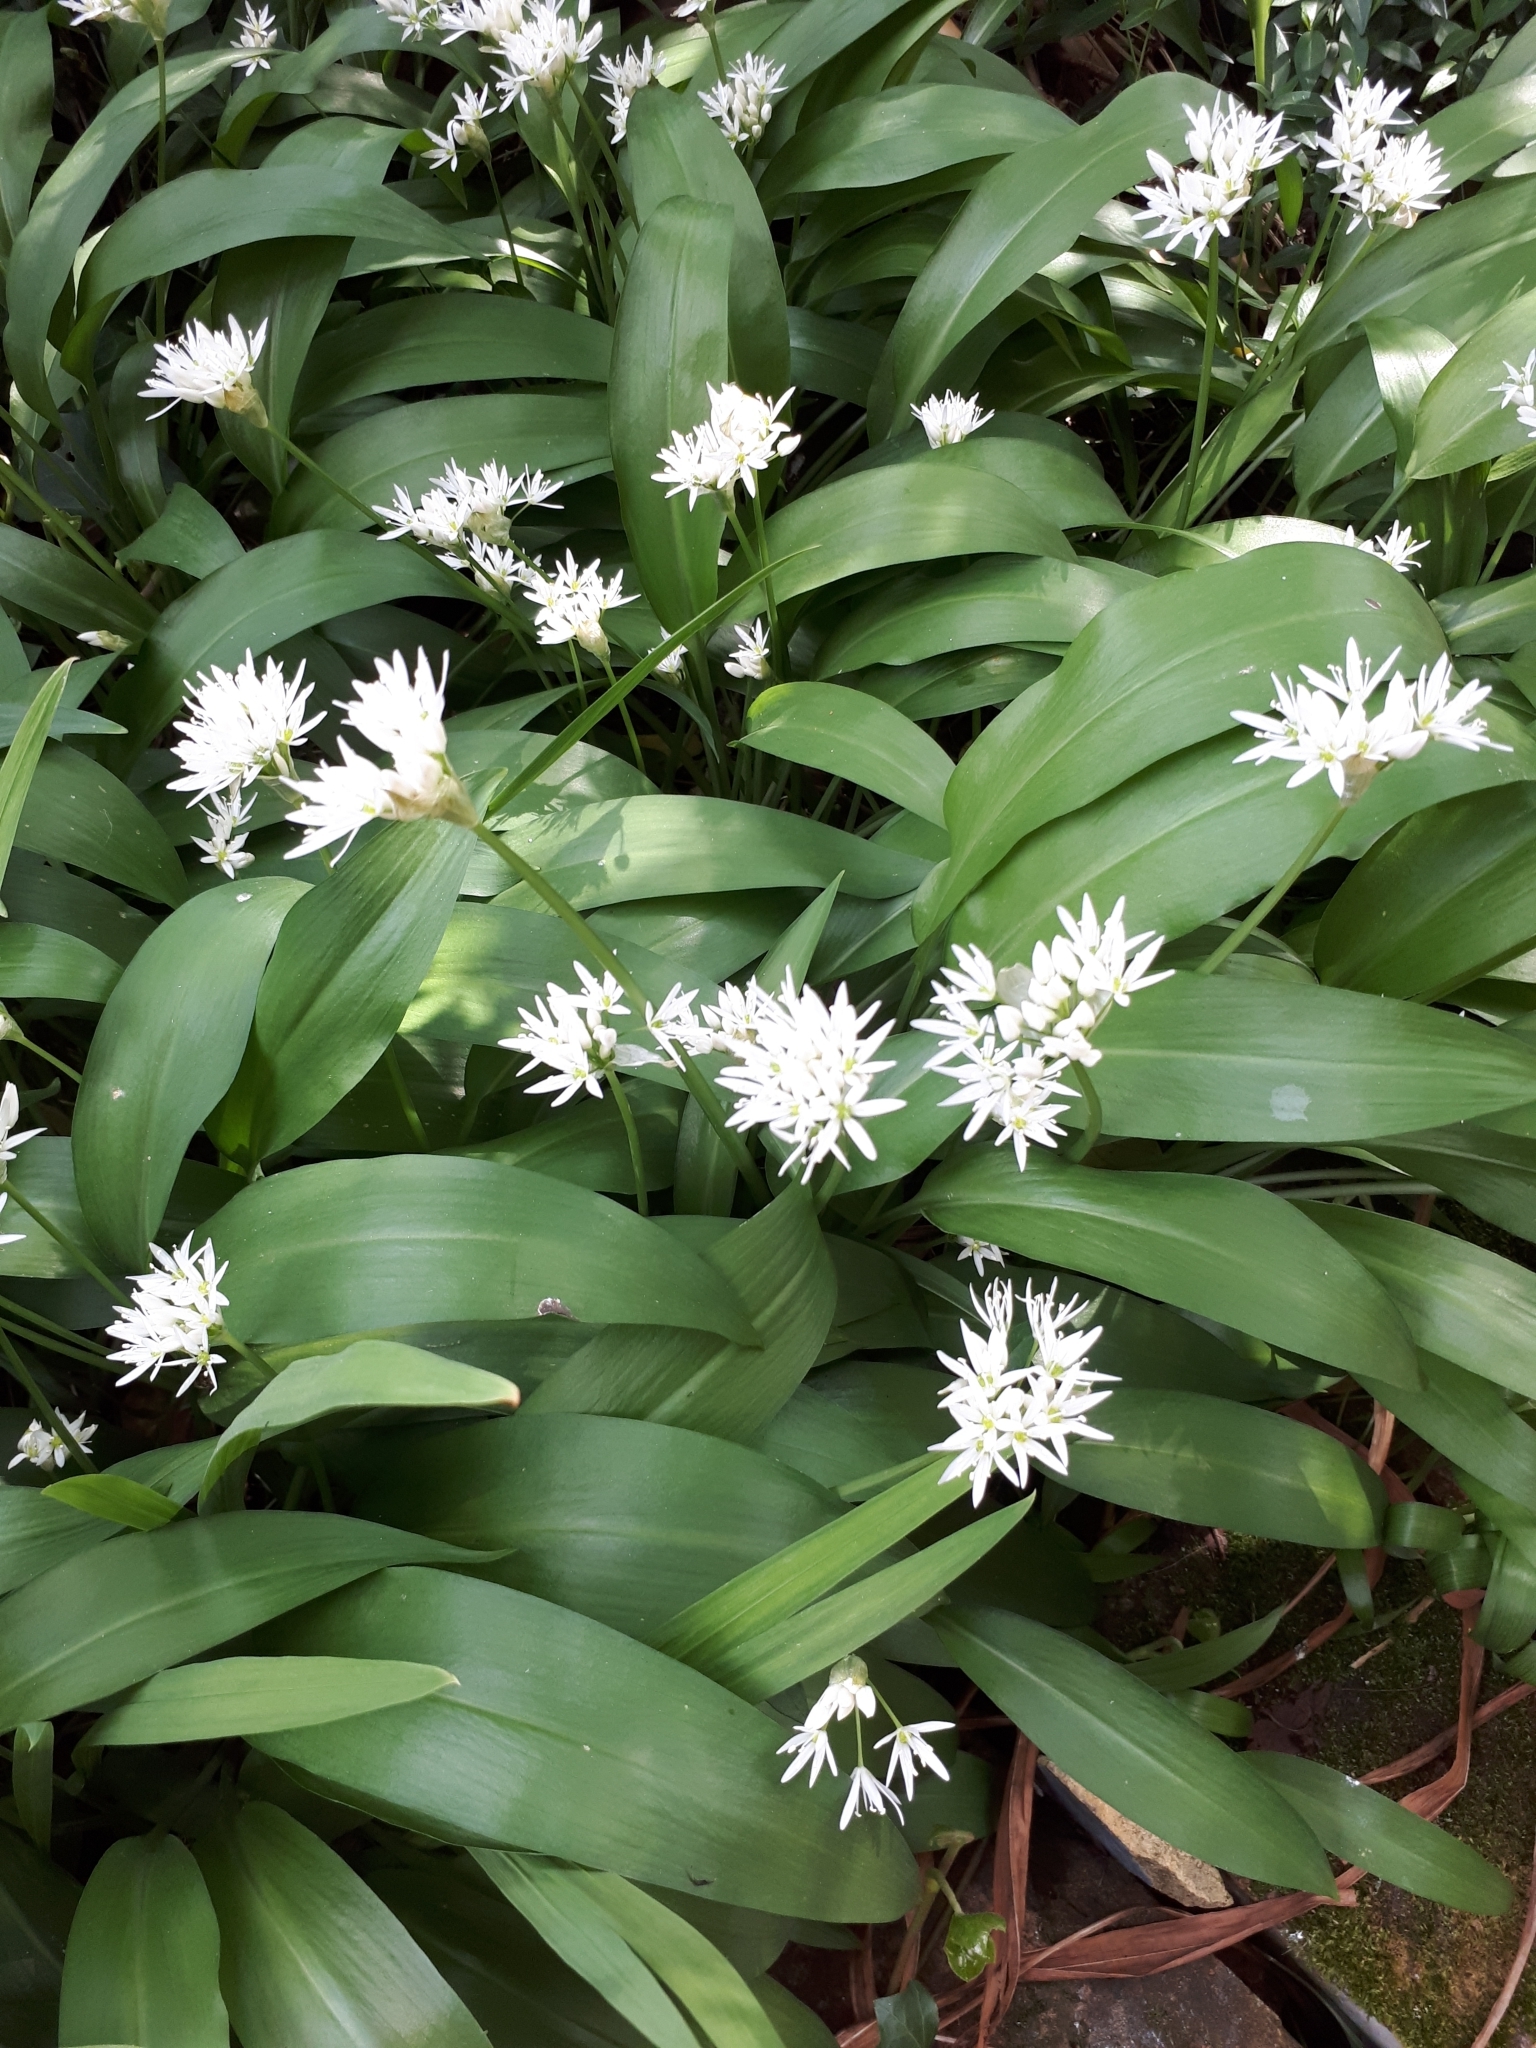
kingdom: Plantae
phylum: Tracheophyta
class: Liliopsida
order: Asparagales
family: Amaryllidaceae
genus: Allium
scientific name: Allium ursinum
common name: Ramsons
